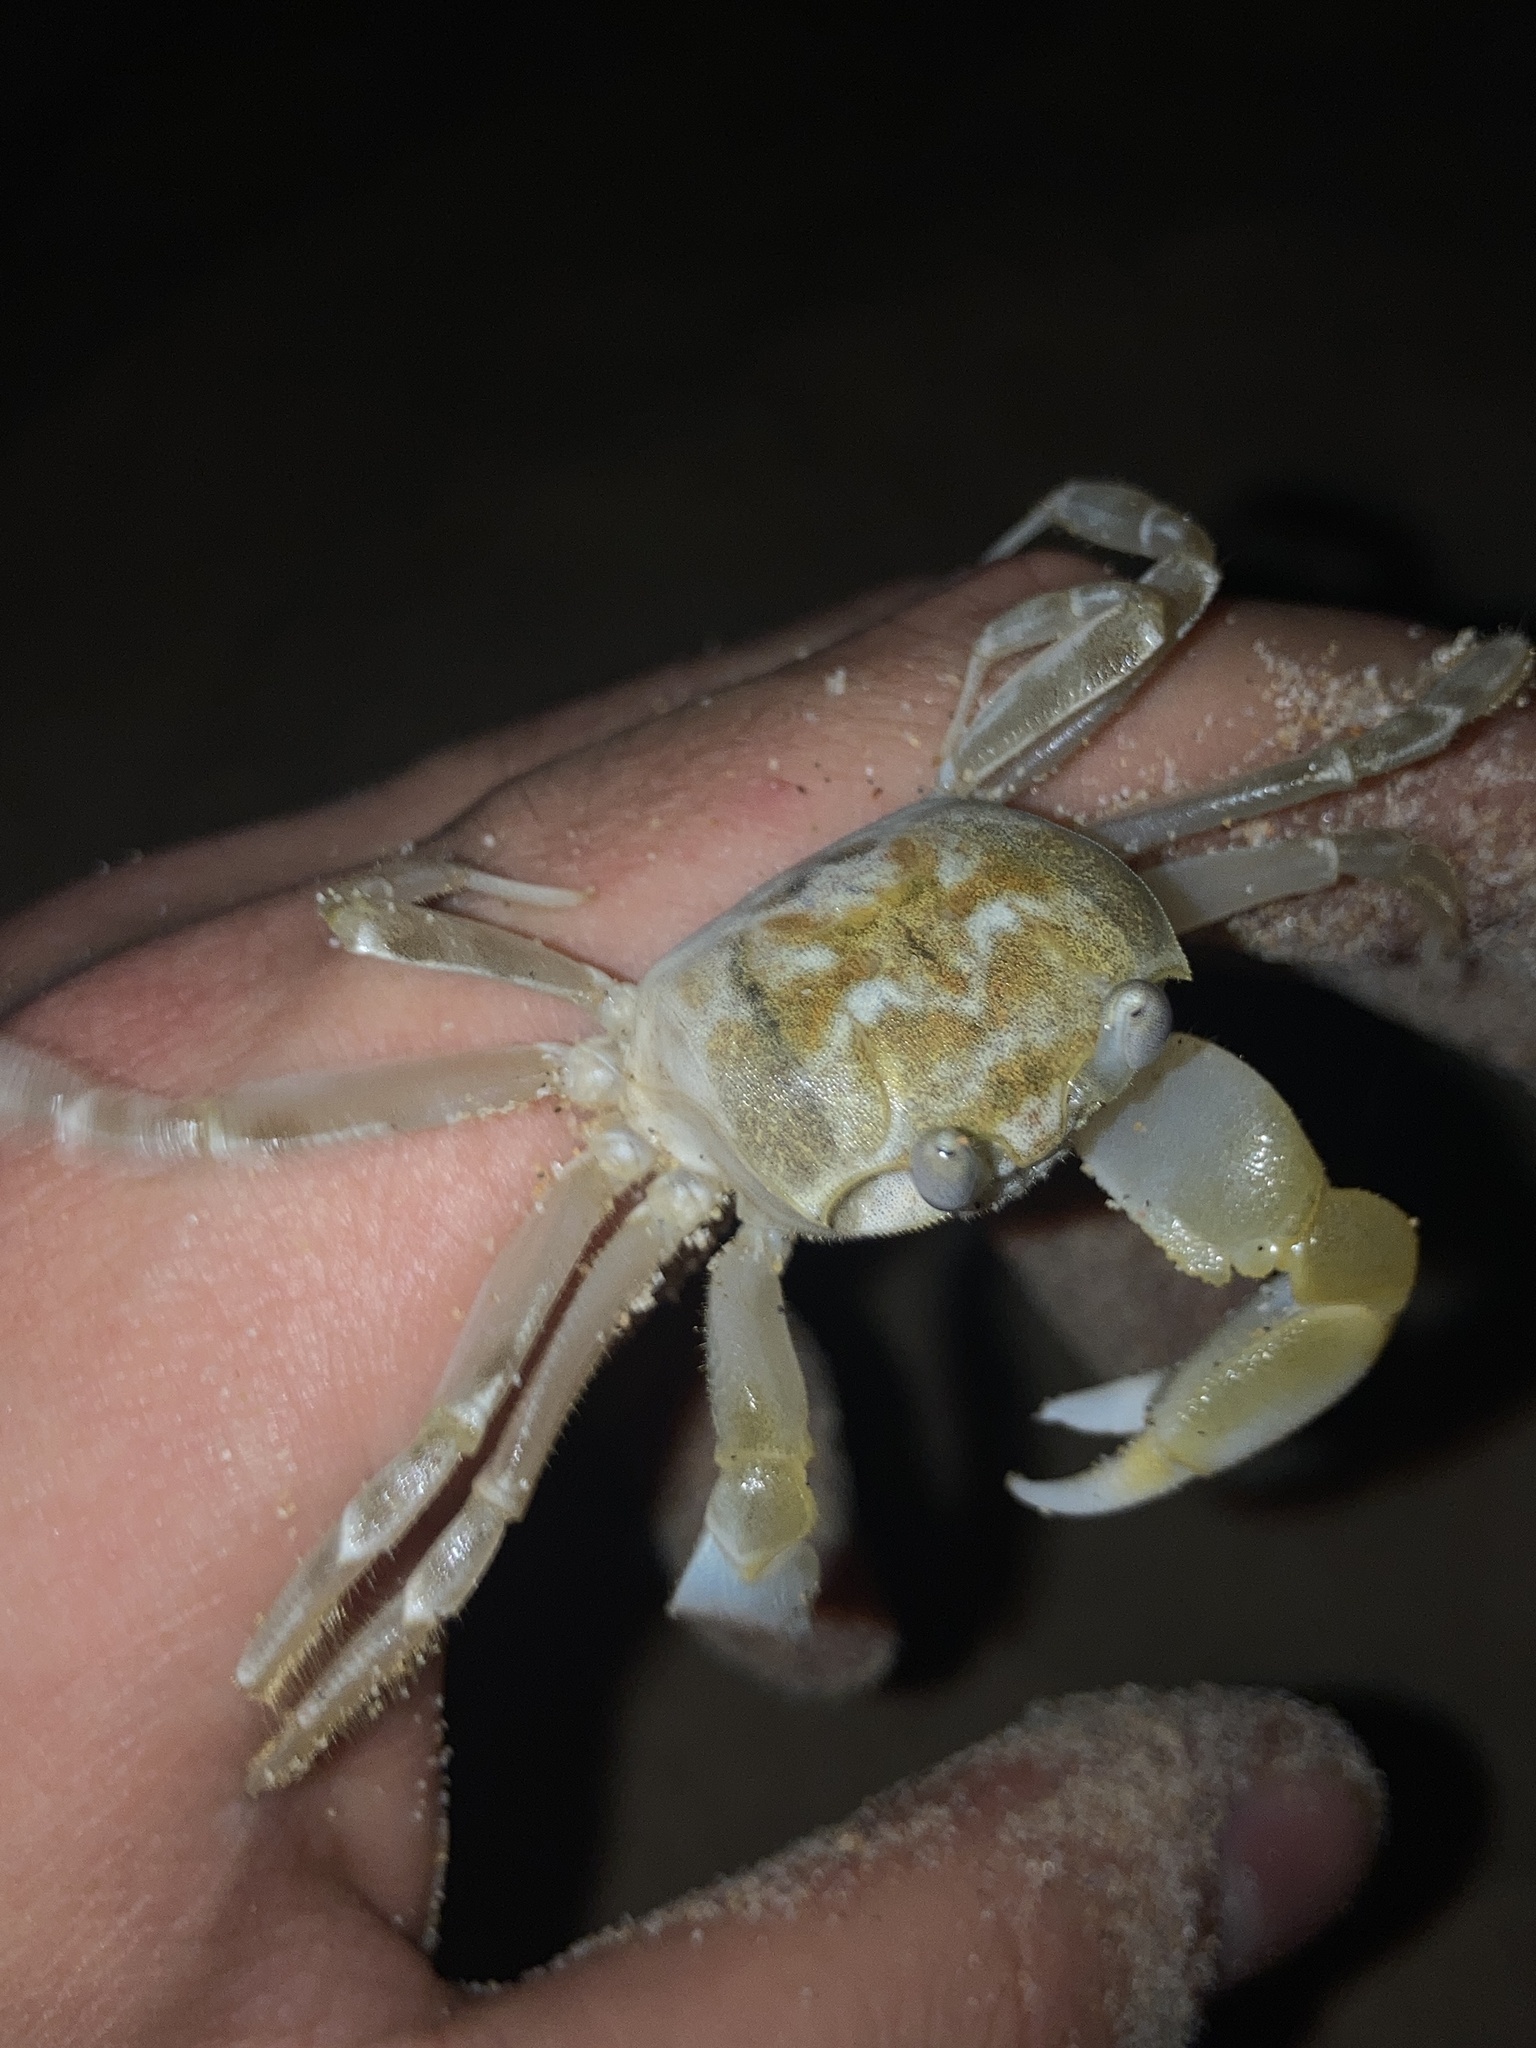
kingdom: Animalia
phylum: Arthropoda
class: Malacostraca
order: Decapoda
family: Ocypodidae
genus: Ocypode
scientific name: Ocypode cordimana
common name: Smooth-eyed ghost crab
